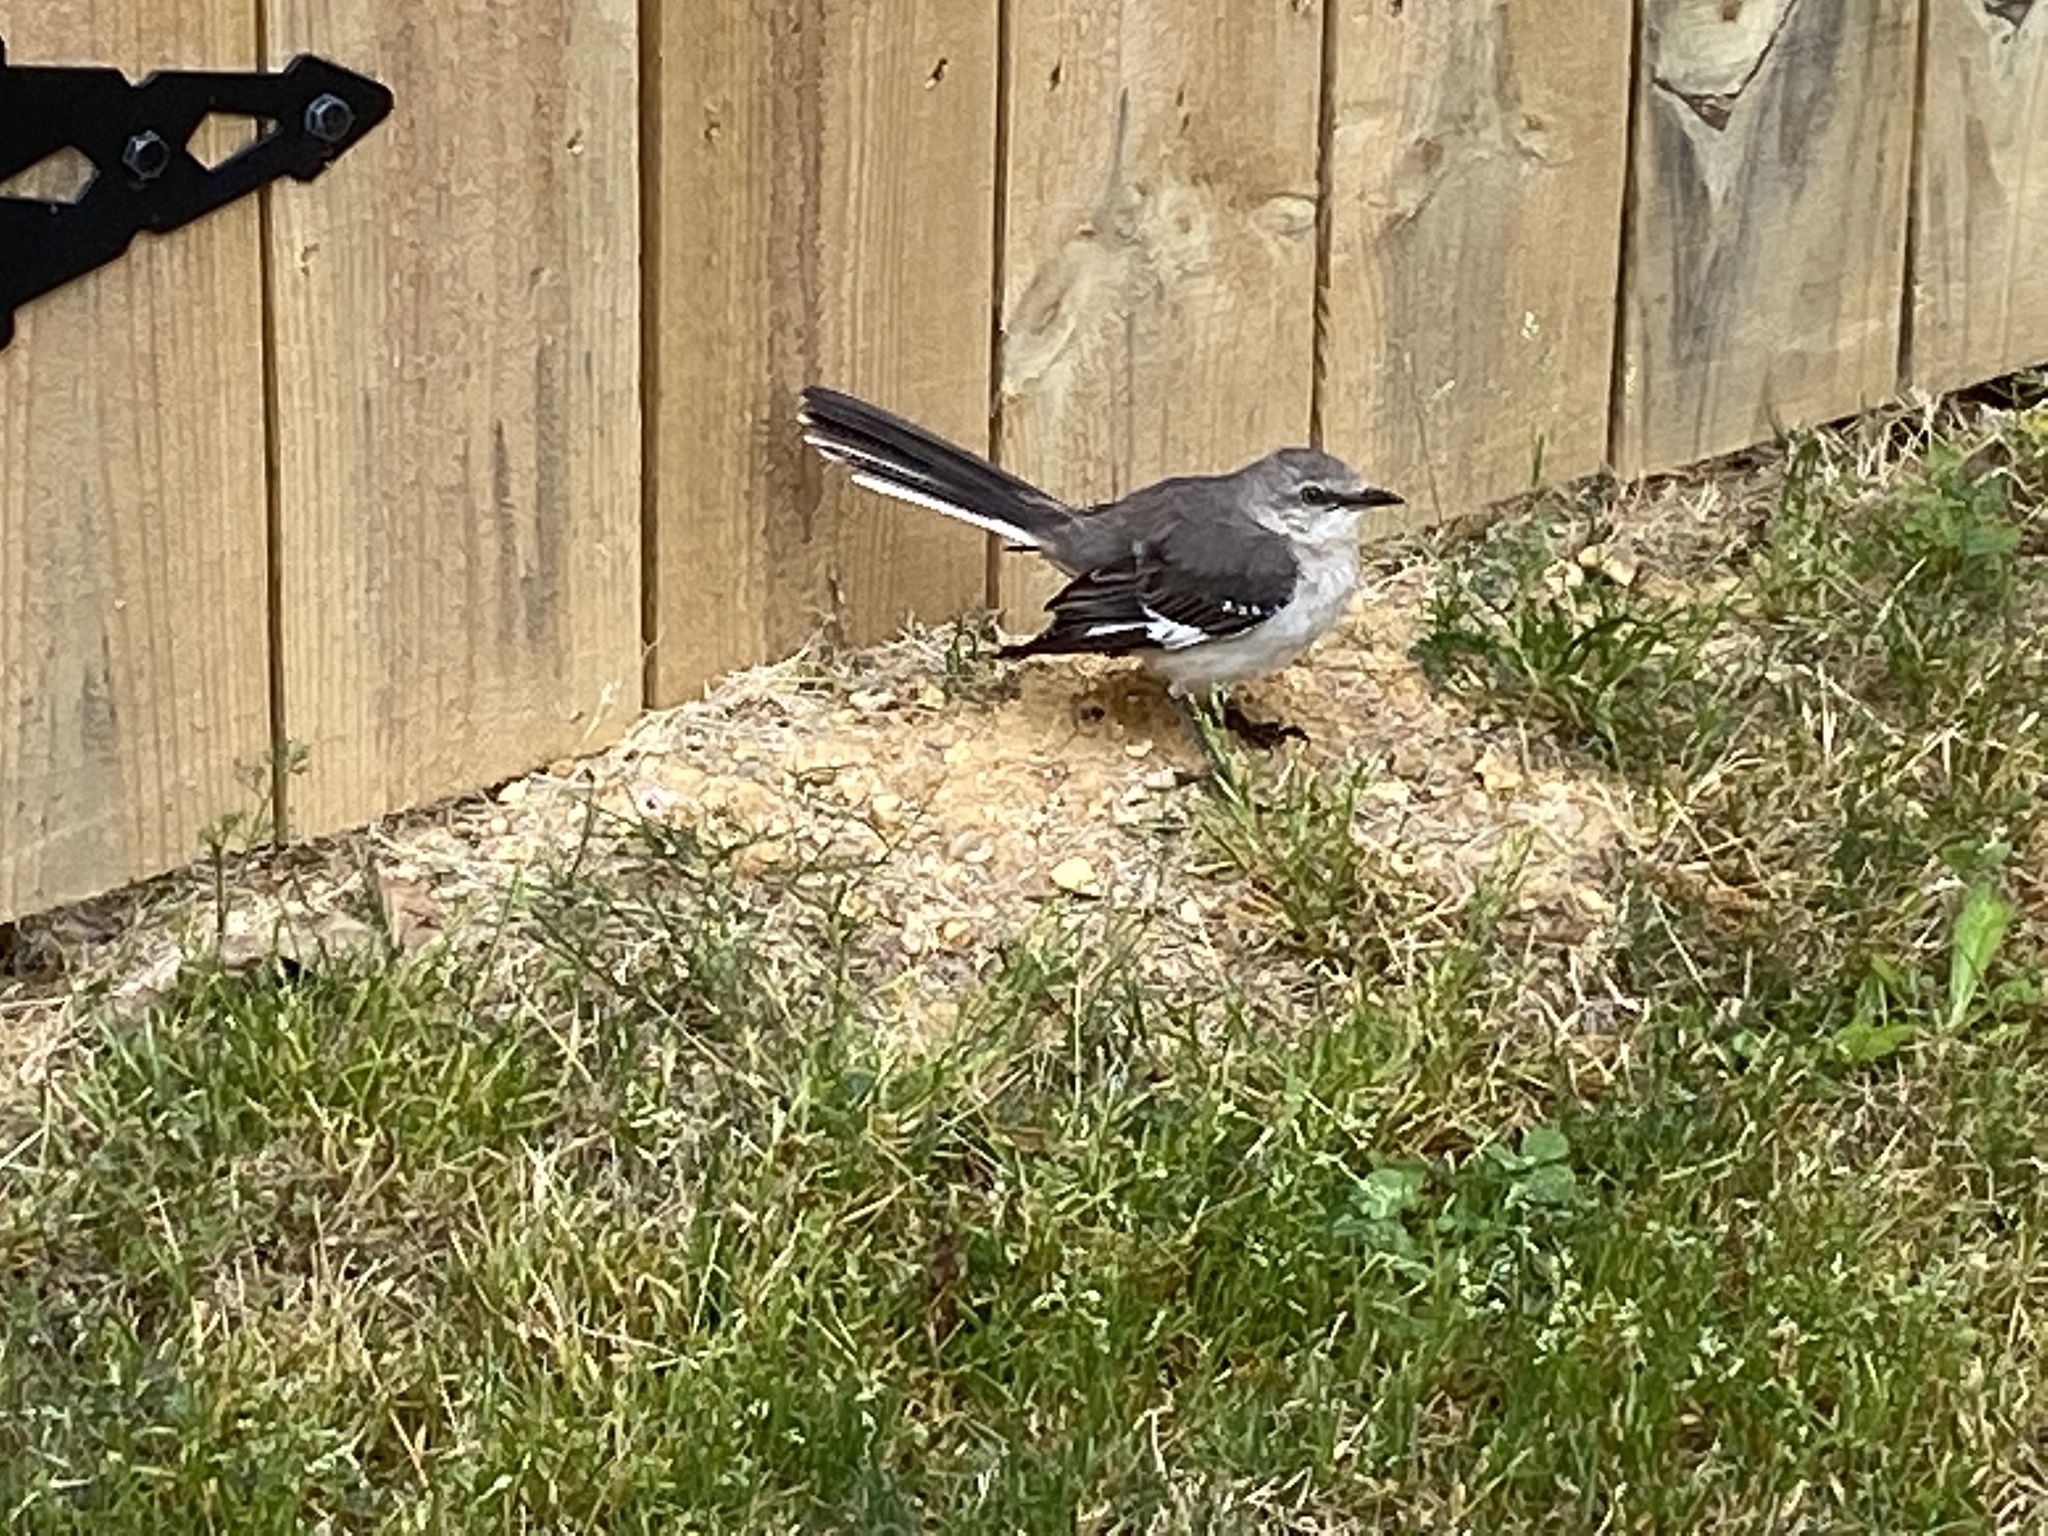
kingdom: Animalia
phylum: Chordata
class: Aves
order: Passeriformes
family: Mimidae
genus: Mimus
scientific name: Mimus polyglottos
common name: Northern mockingbird
